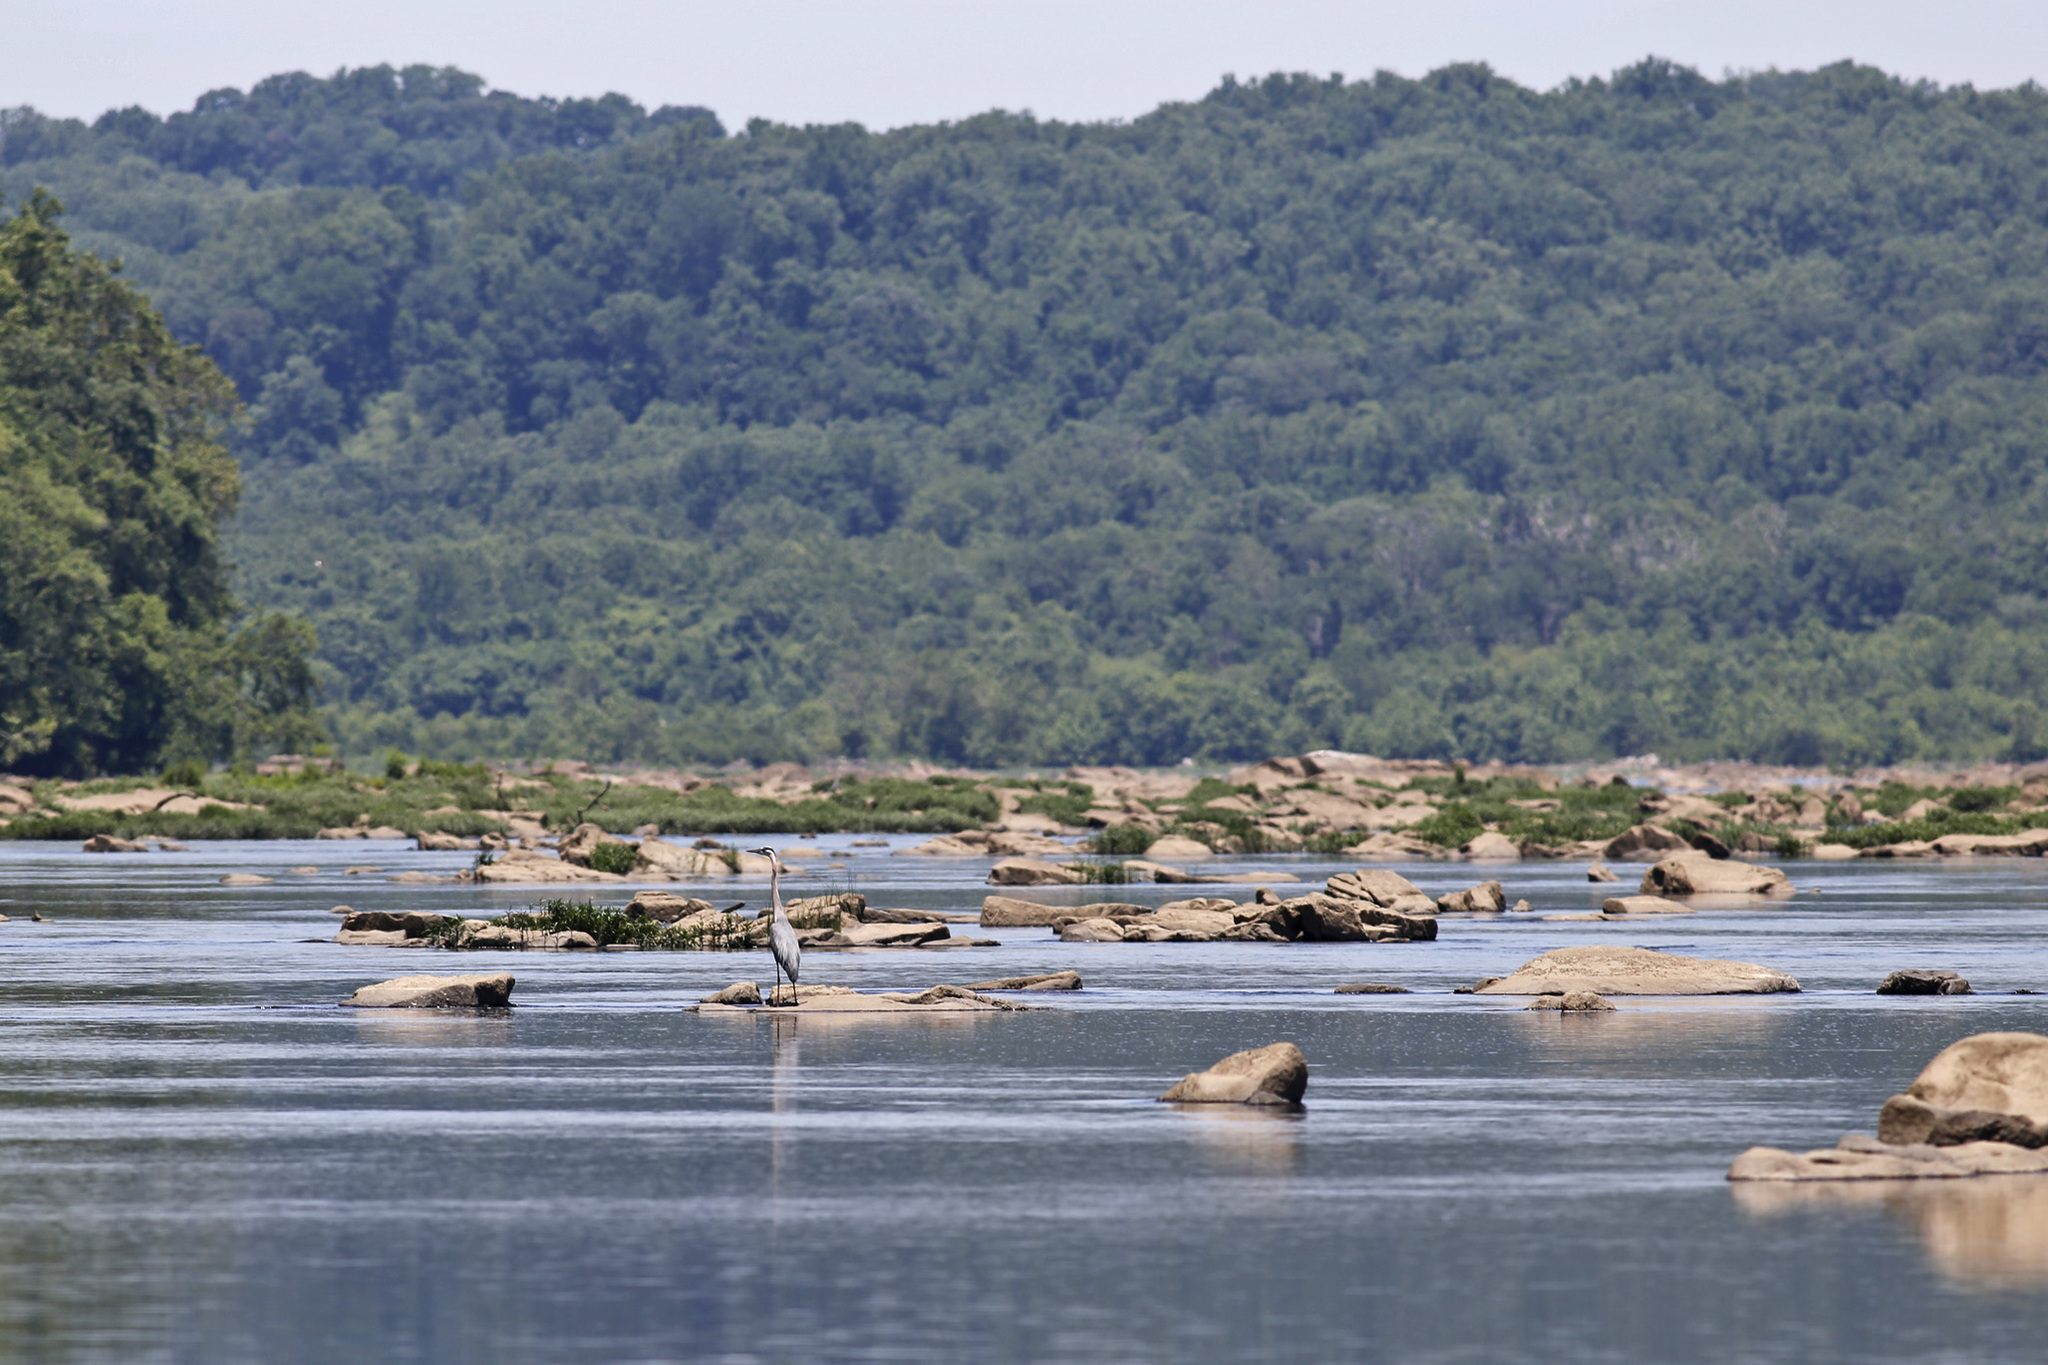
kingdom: Animalia
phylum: Chordata
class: Aves
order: Pelecaniformes
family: Ardeidae
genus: Ardea
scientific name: Ardea herodias
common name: Great blue heron
